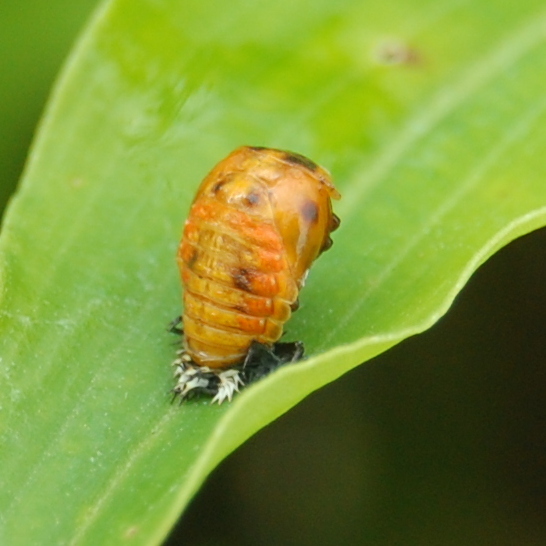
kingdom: Animalia
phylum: Arthropoda
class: Insecta
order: Coleoptera
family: Coccinellidae
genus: Harmonia
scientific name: Harmonia axyridis
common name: Harlequin ladybird
